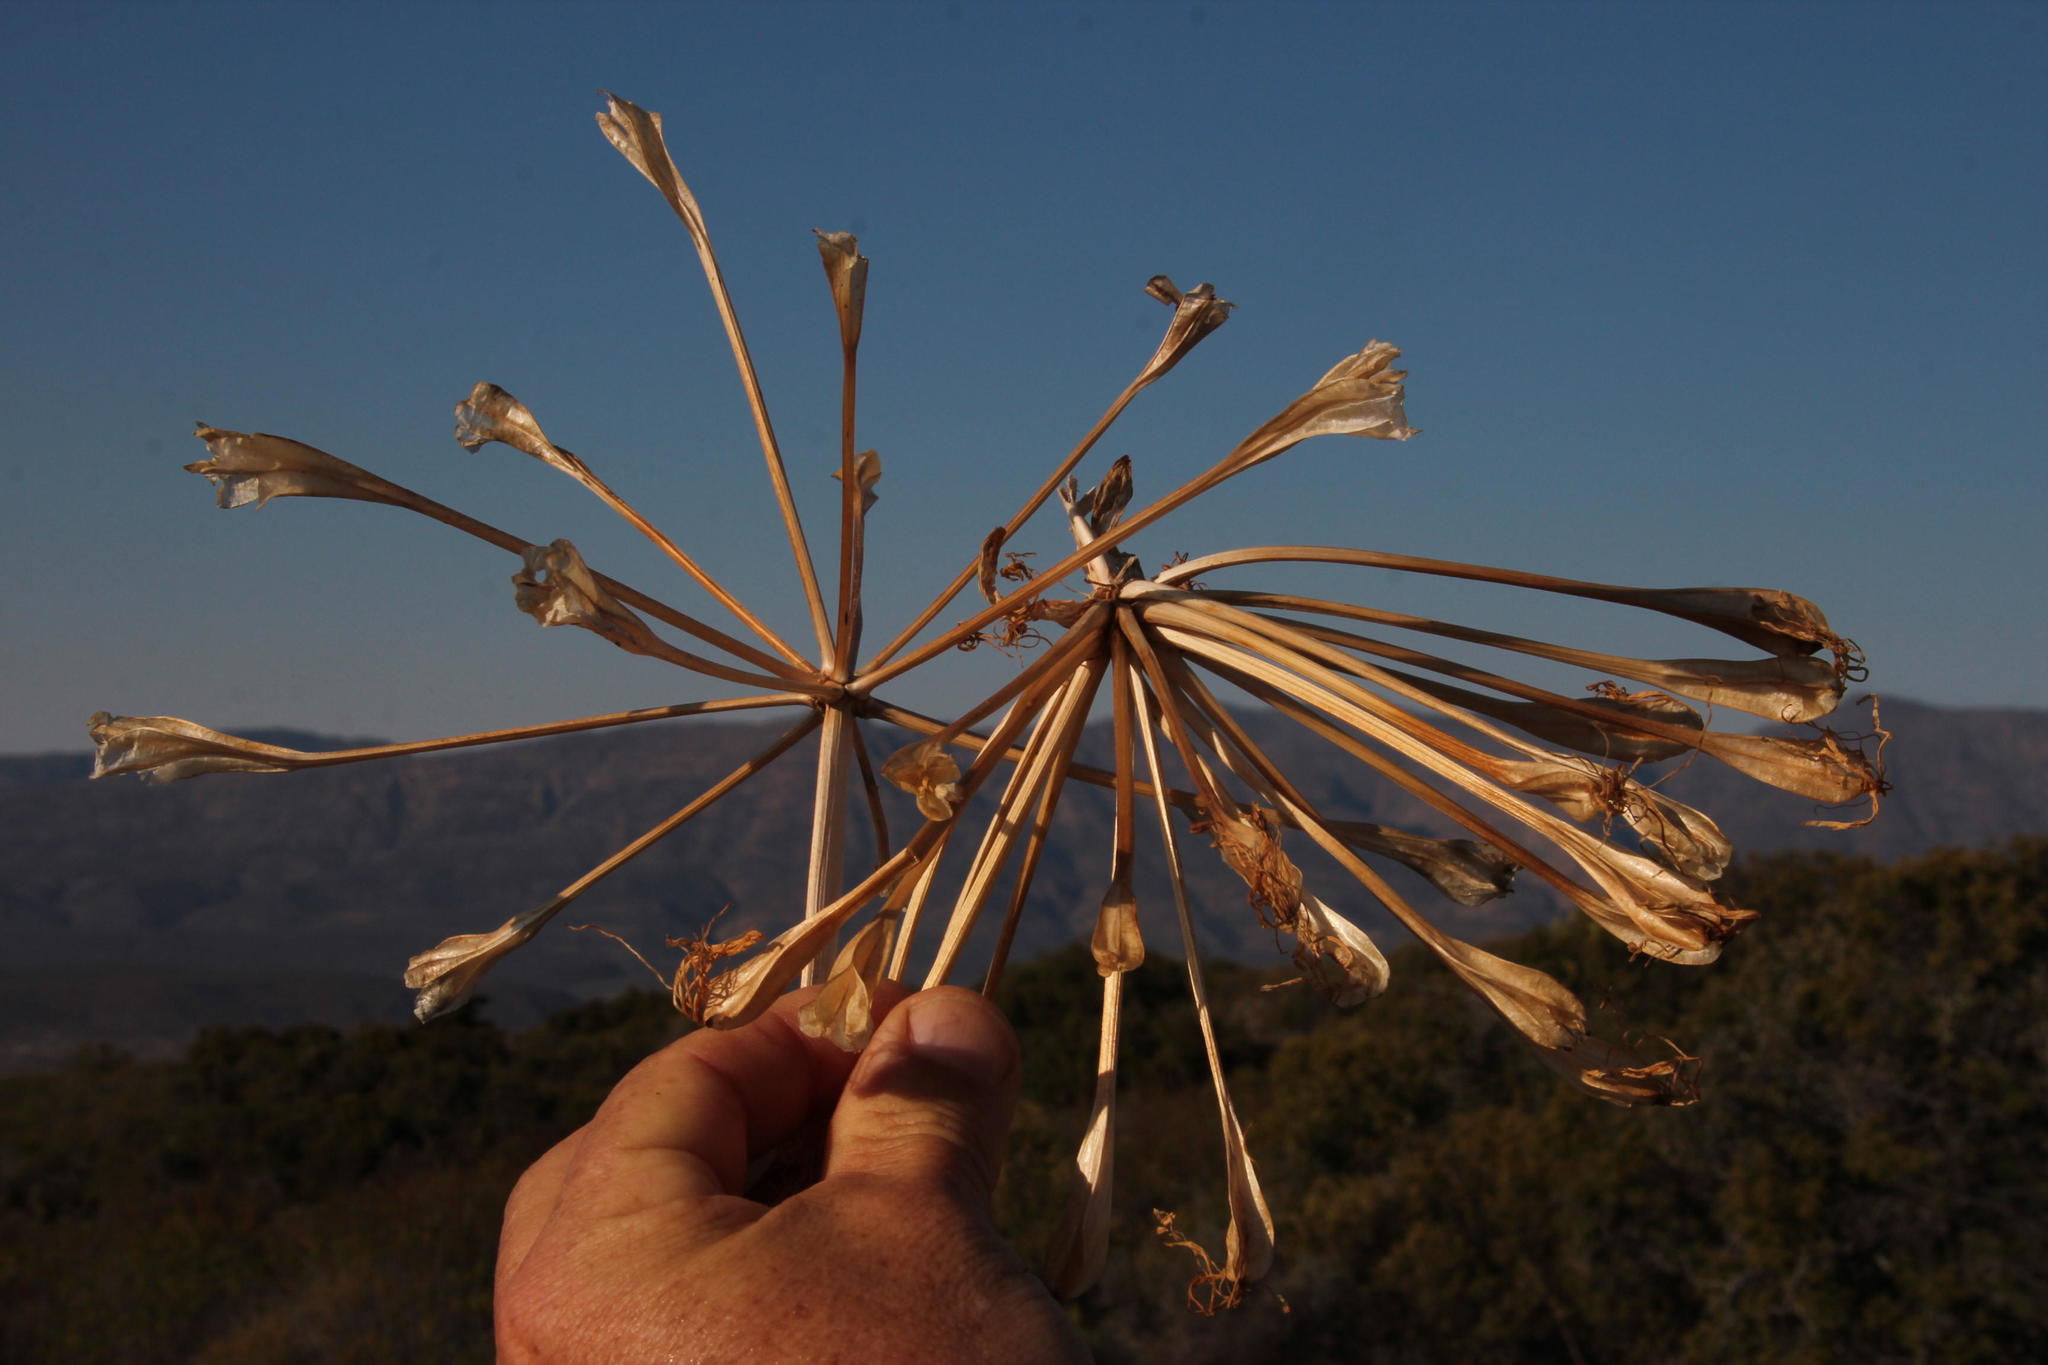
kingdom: Plantae
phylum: Tracheophyta
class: Liliopsida
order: Asparagales
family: Amaryllidaceae
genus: Brunsvigia
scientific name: Brunsvigia nervosa
